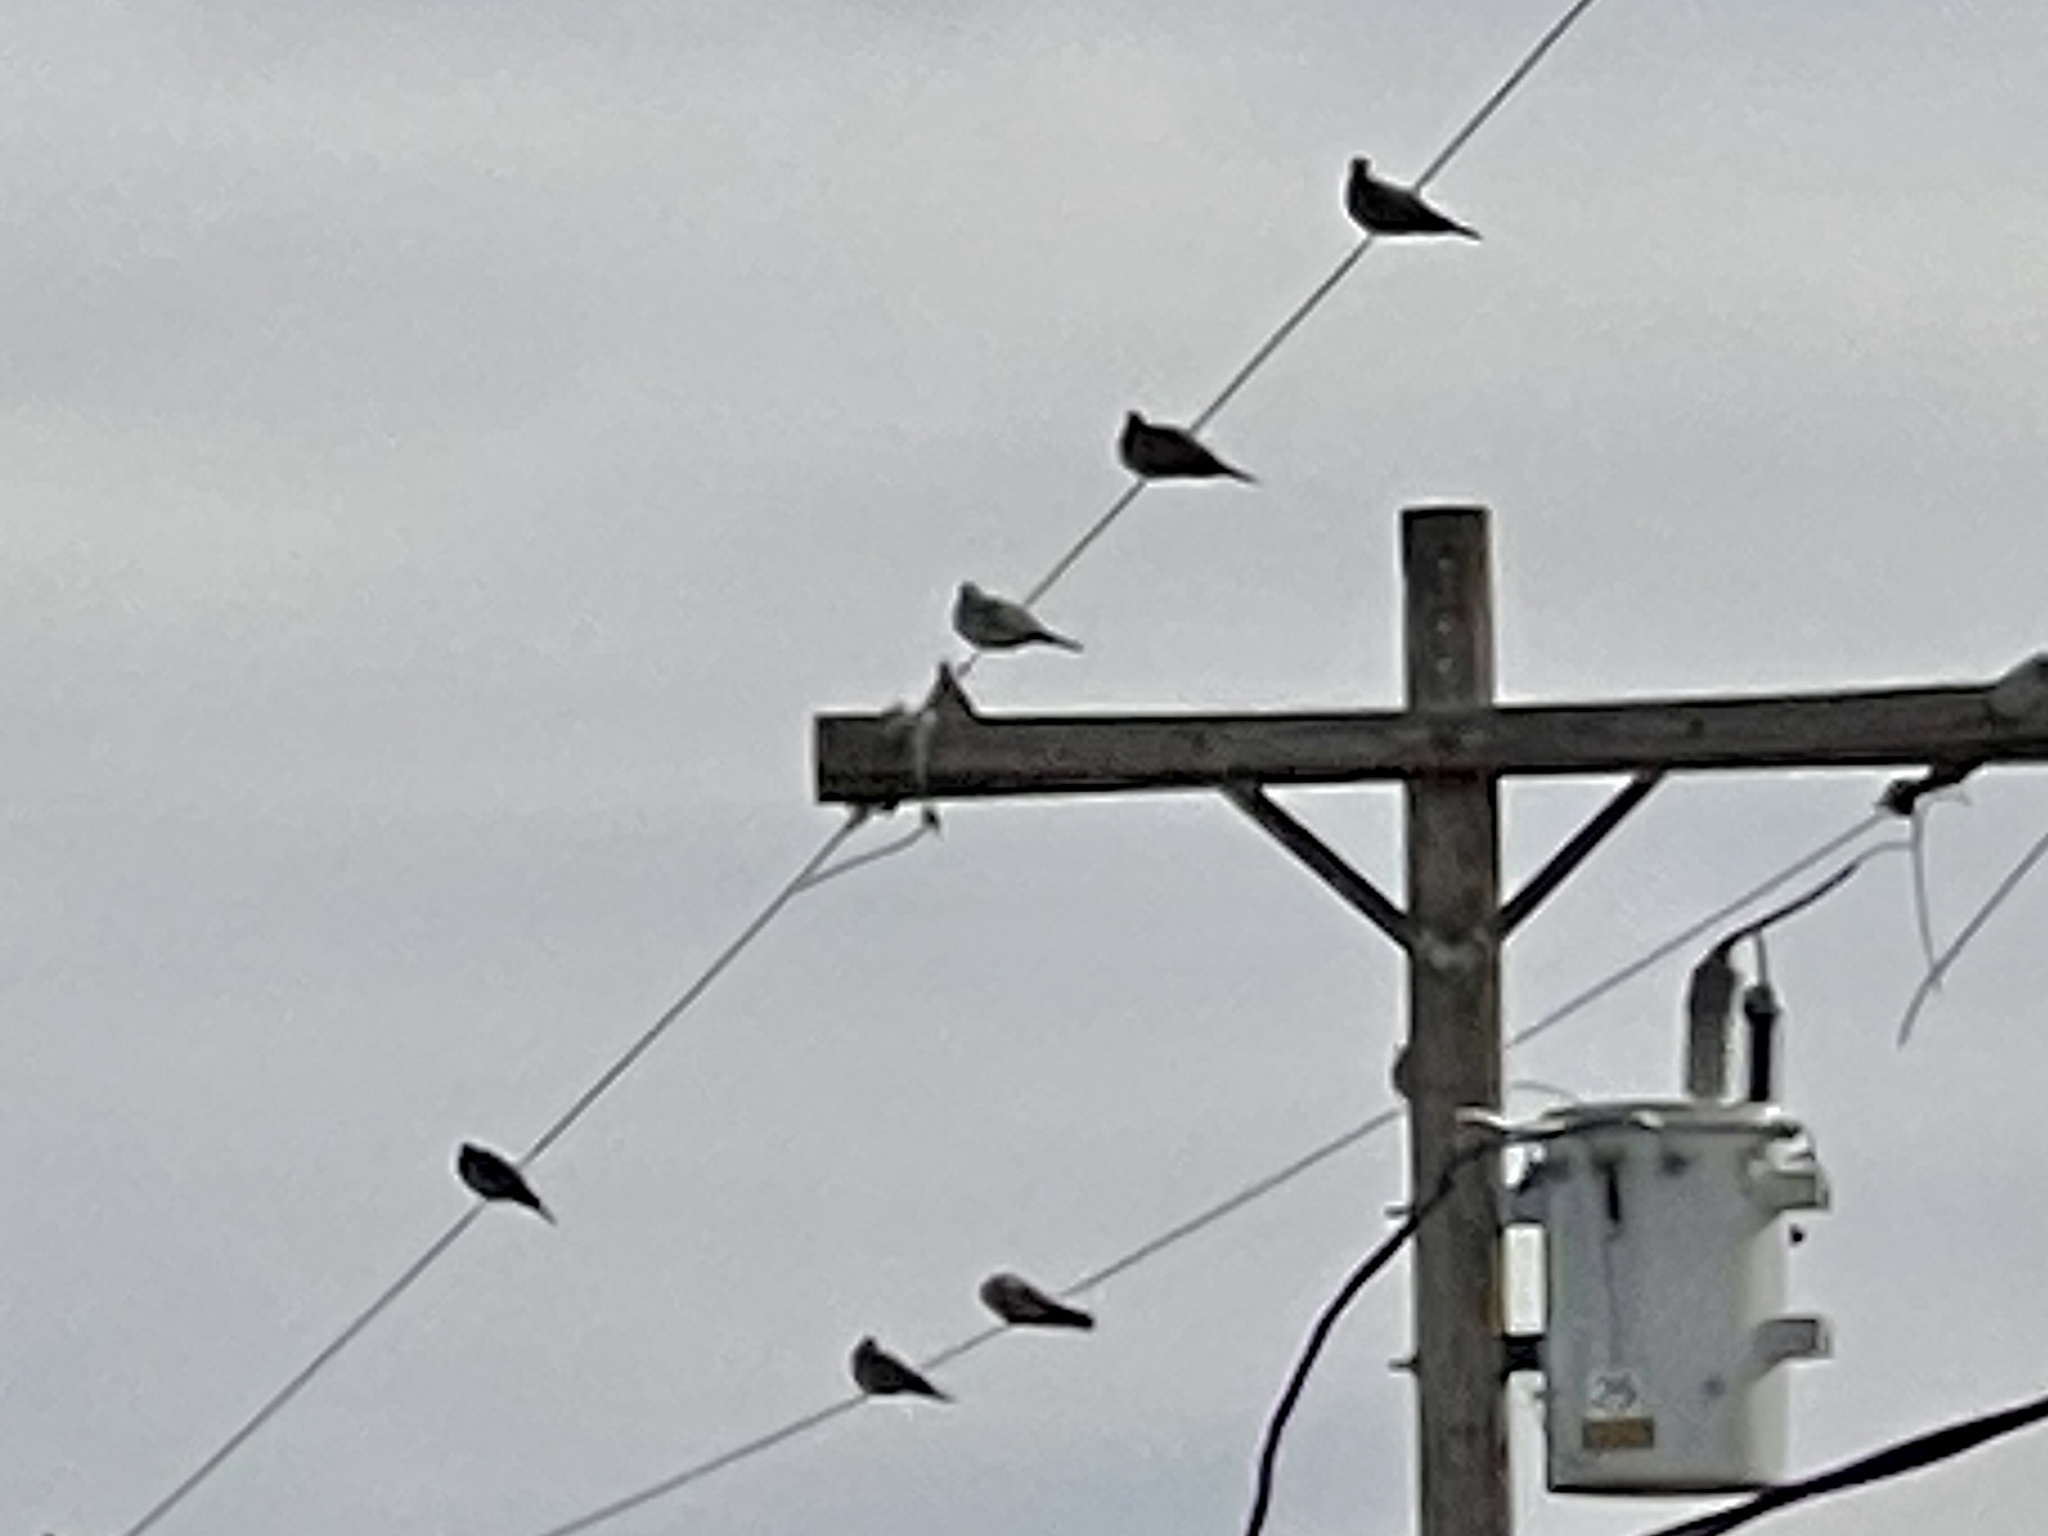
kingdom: Animalia
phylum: Chordata
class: Aves
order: Columbiformes
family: Columbidae
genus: Zenaida
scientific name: Zenaida macroura
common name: Mourning dove
